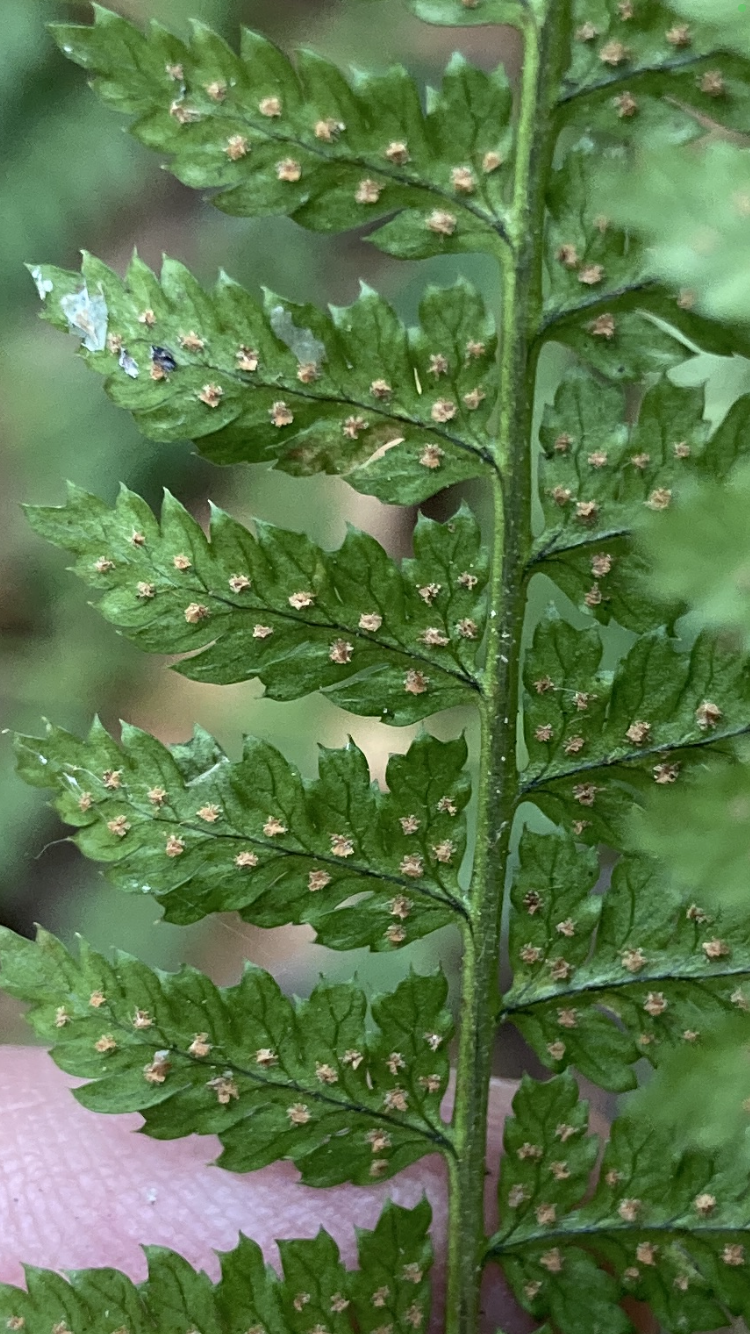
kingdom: Plantae
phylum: Tracheophyta
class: Polypodiopsida
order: Polypodiales
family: Dryopteridaceae
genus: Dryopteris
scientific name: Dryopteris intermedia
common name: Evergreen wood fern
